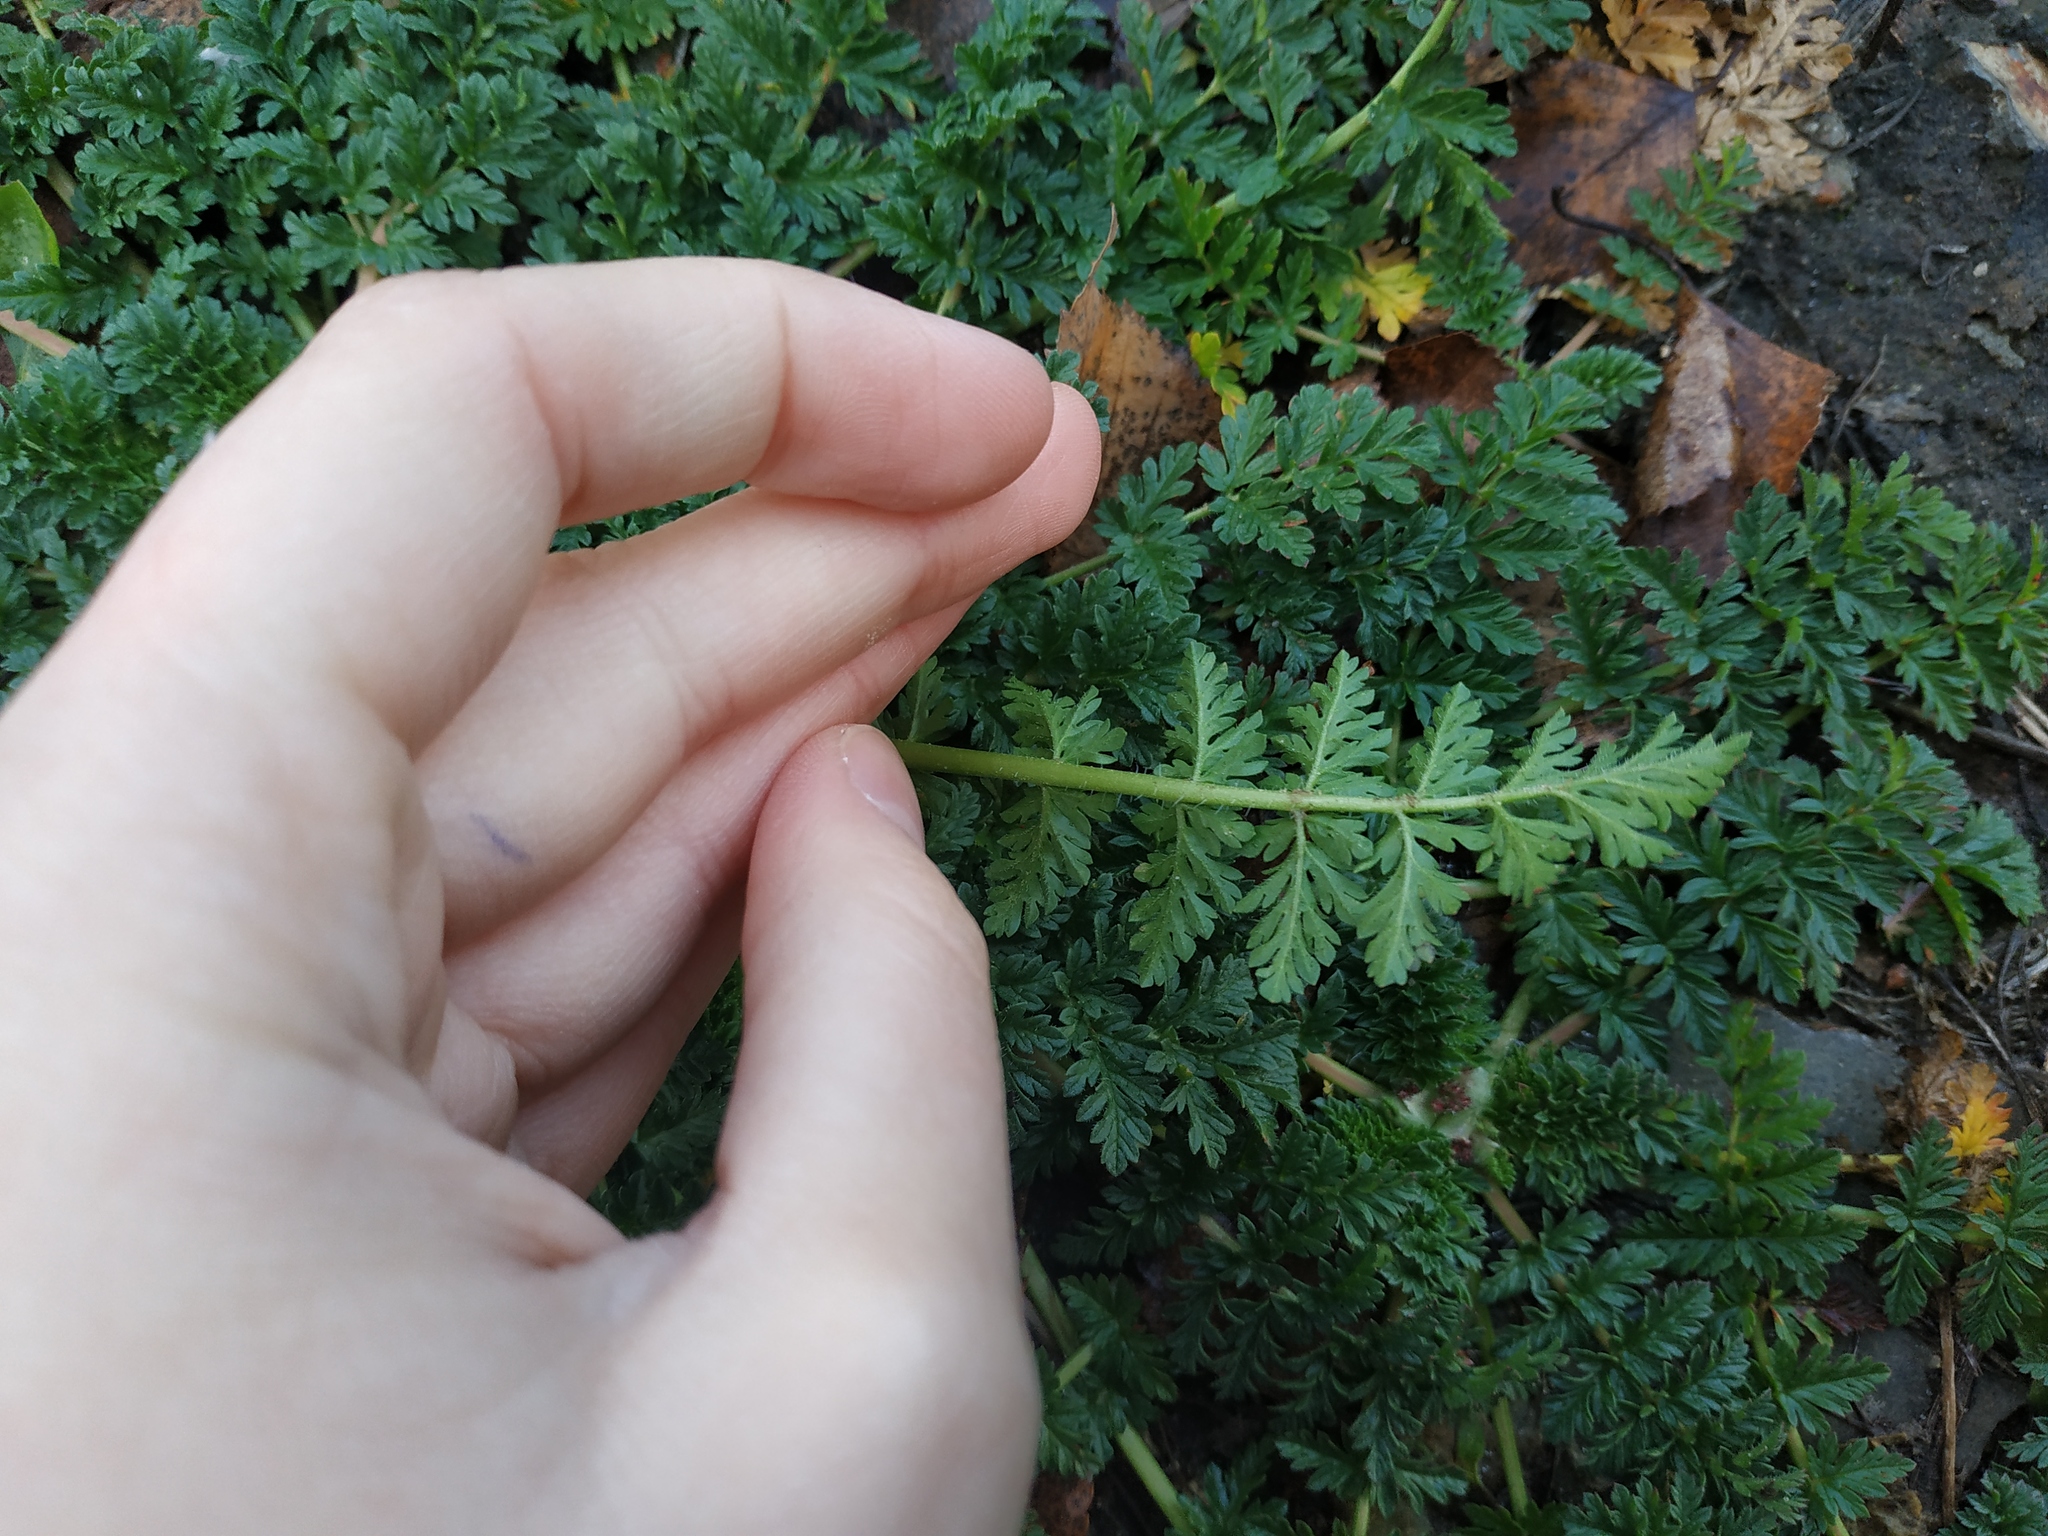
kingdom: Plantae
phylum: Tracheophyta
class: Magnoliopsida
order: Geraniales
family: Geraniaceae
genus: Erodium
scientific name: Erodium cicutarium
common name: Common stork's-bill
